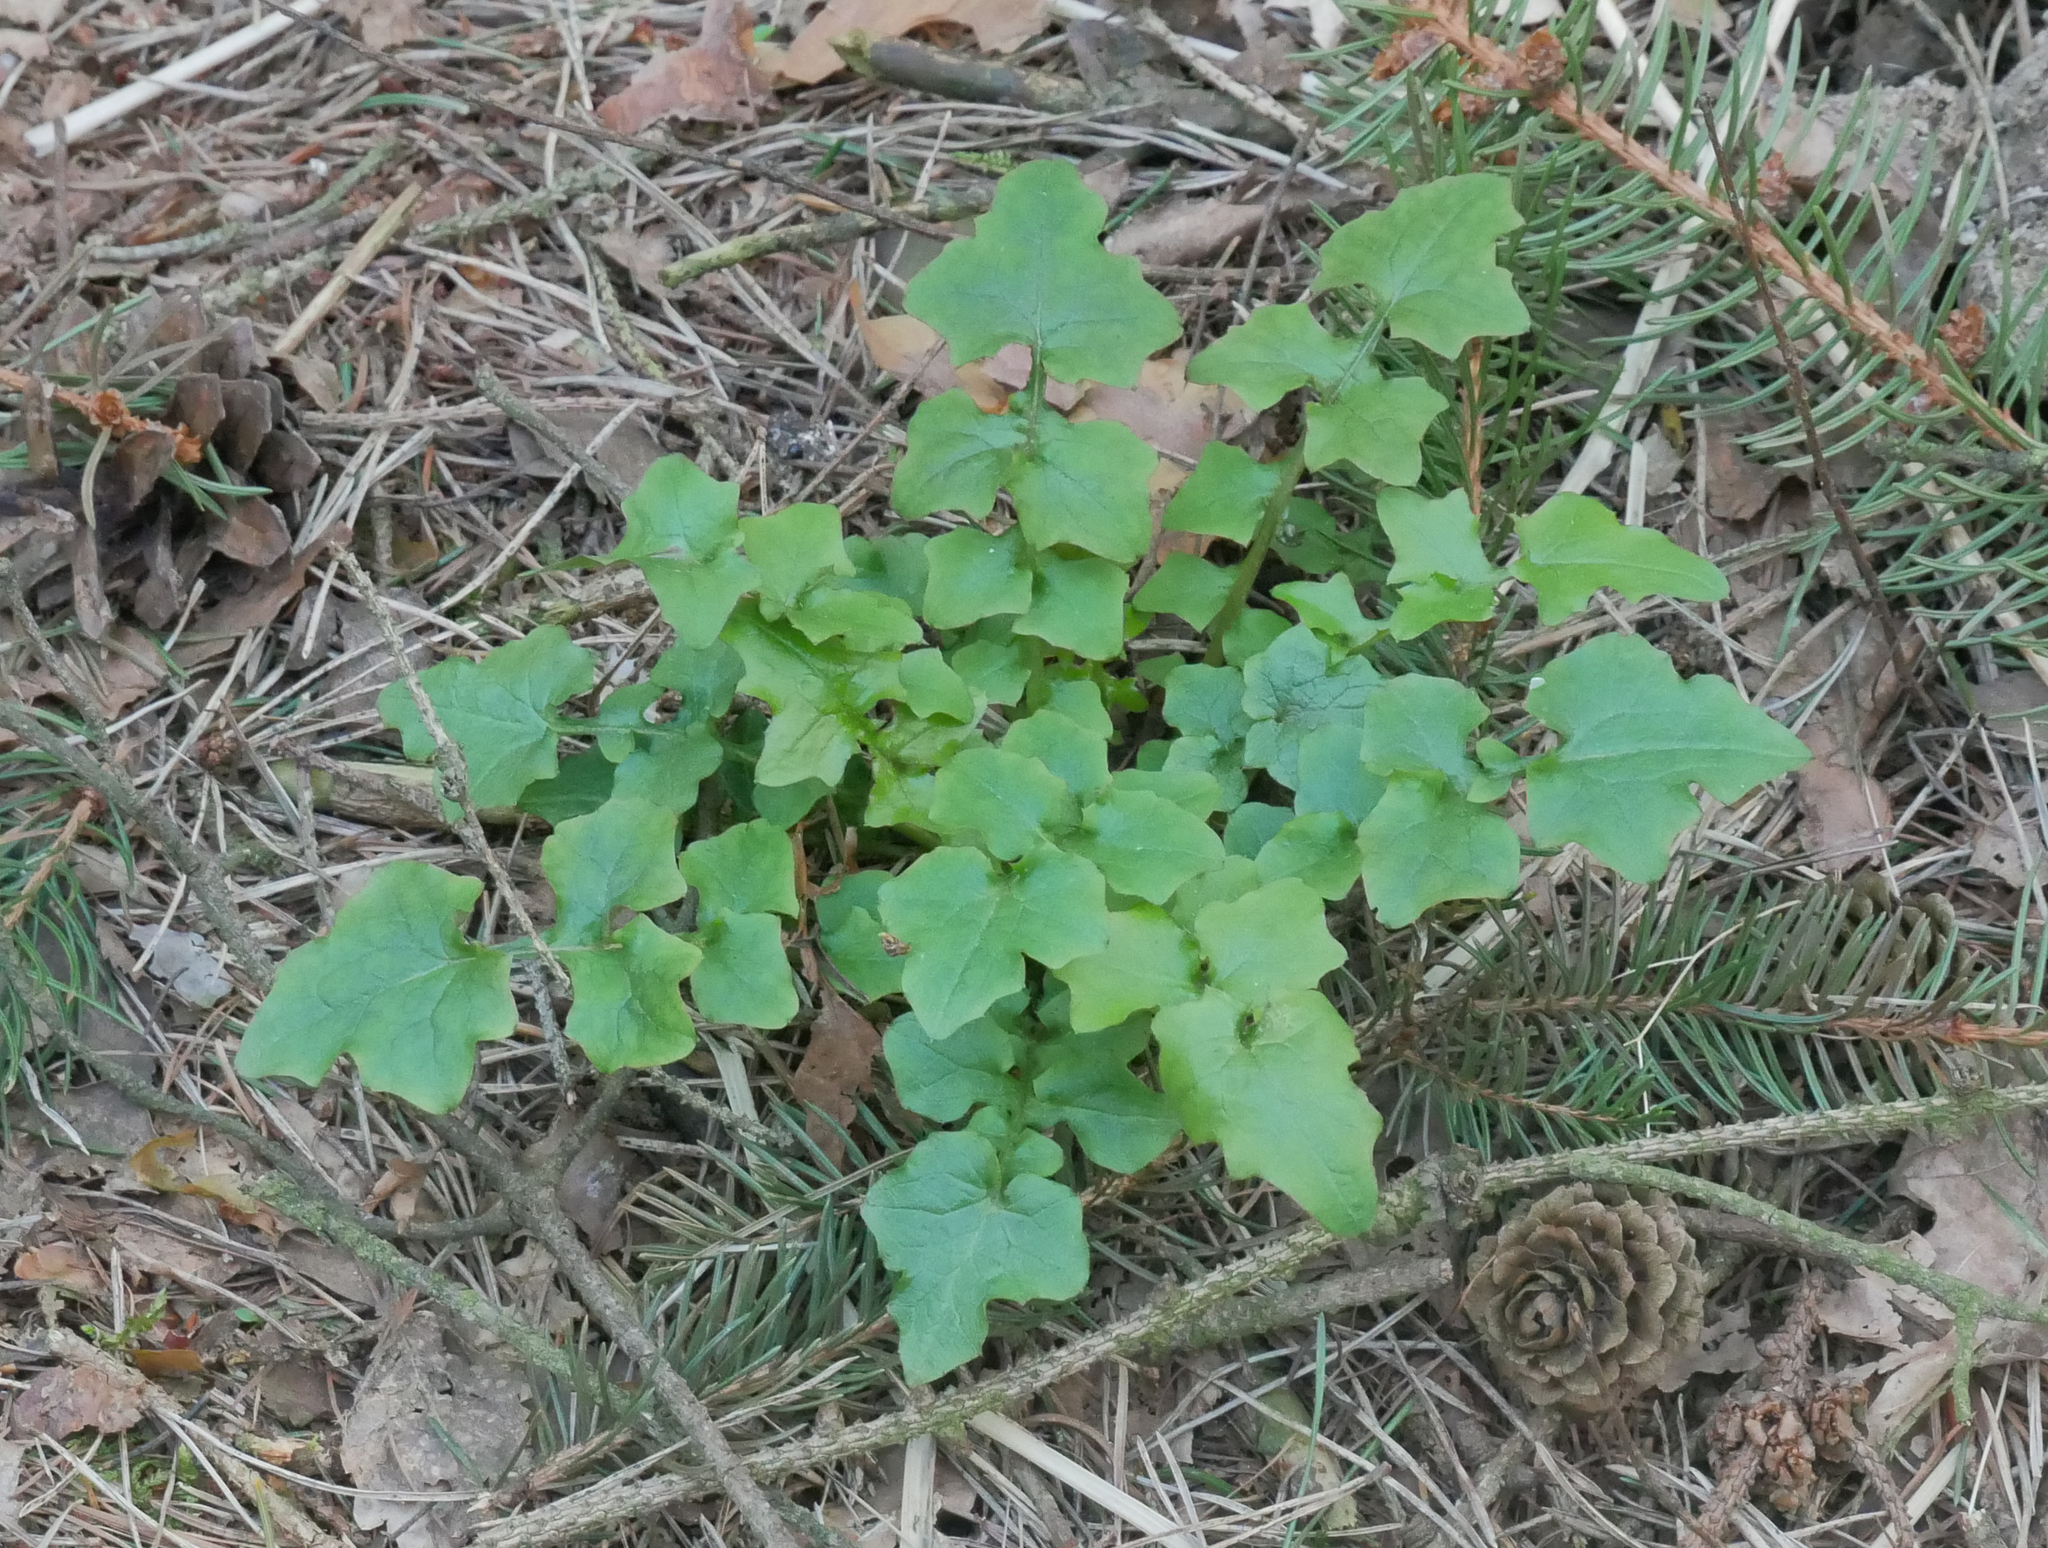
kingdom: Plantae
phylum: Tracheophyta
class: Magnoliopsida
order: Asterales
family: Asteraceae
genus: Mycelis
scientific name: Mycelis muralis
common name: Wall lettuce
